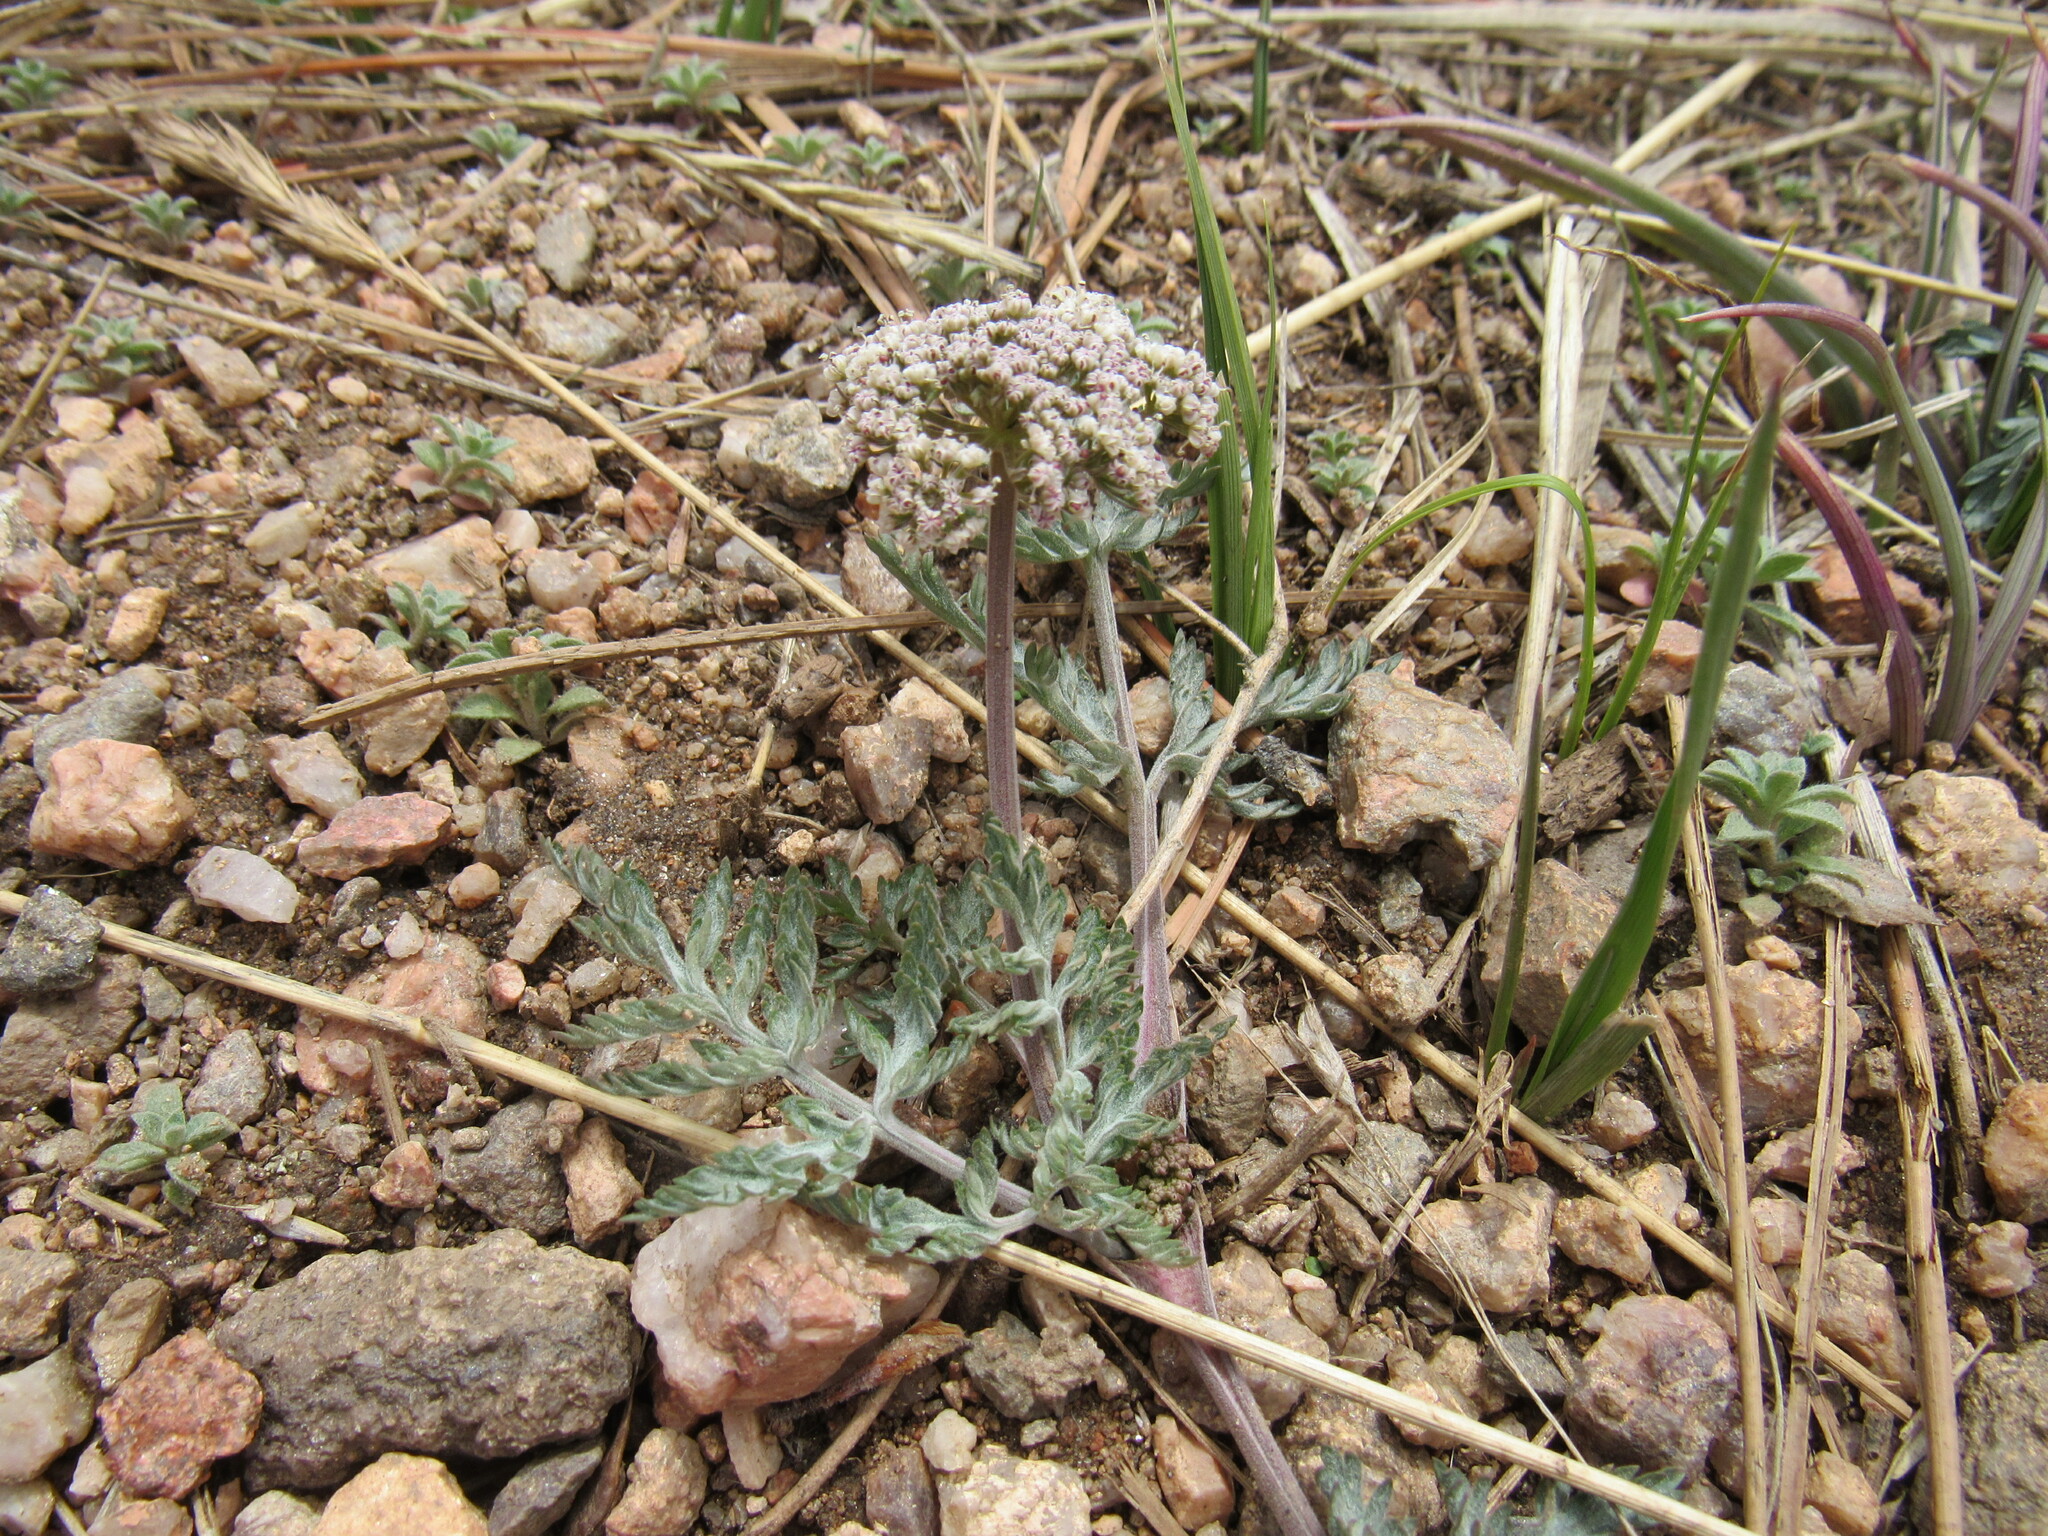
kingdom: Plantae
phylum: Tracheophyta
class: Magnoliopsida
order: Apiales
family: Apiaceae
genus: Lomatium
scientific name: Lomatium orientale
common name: Eastern cous
